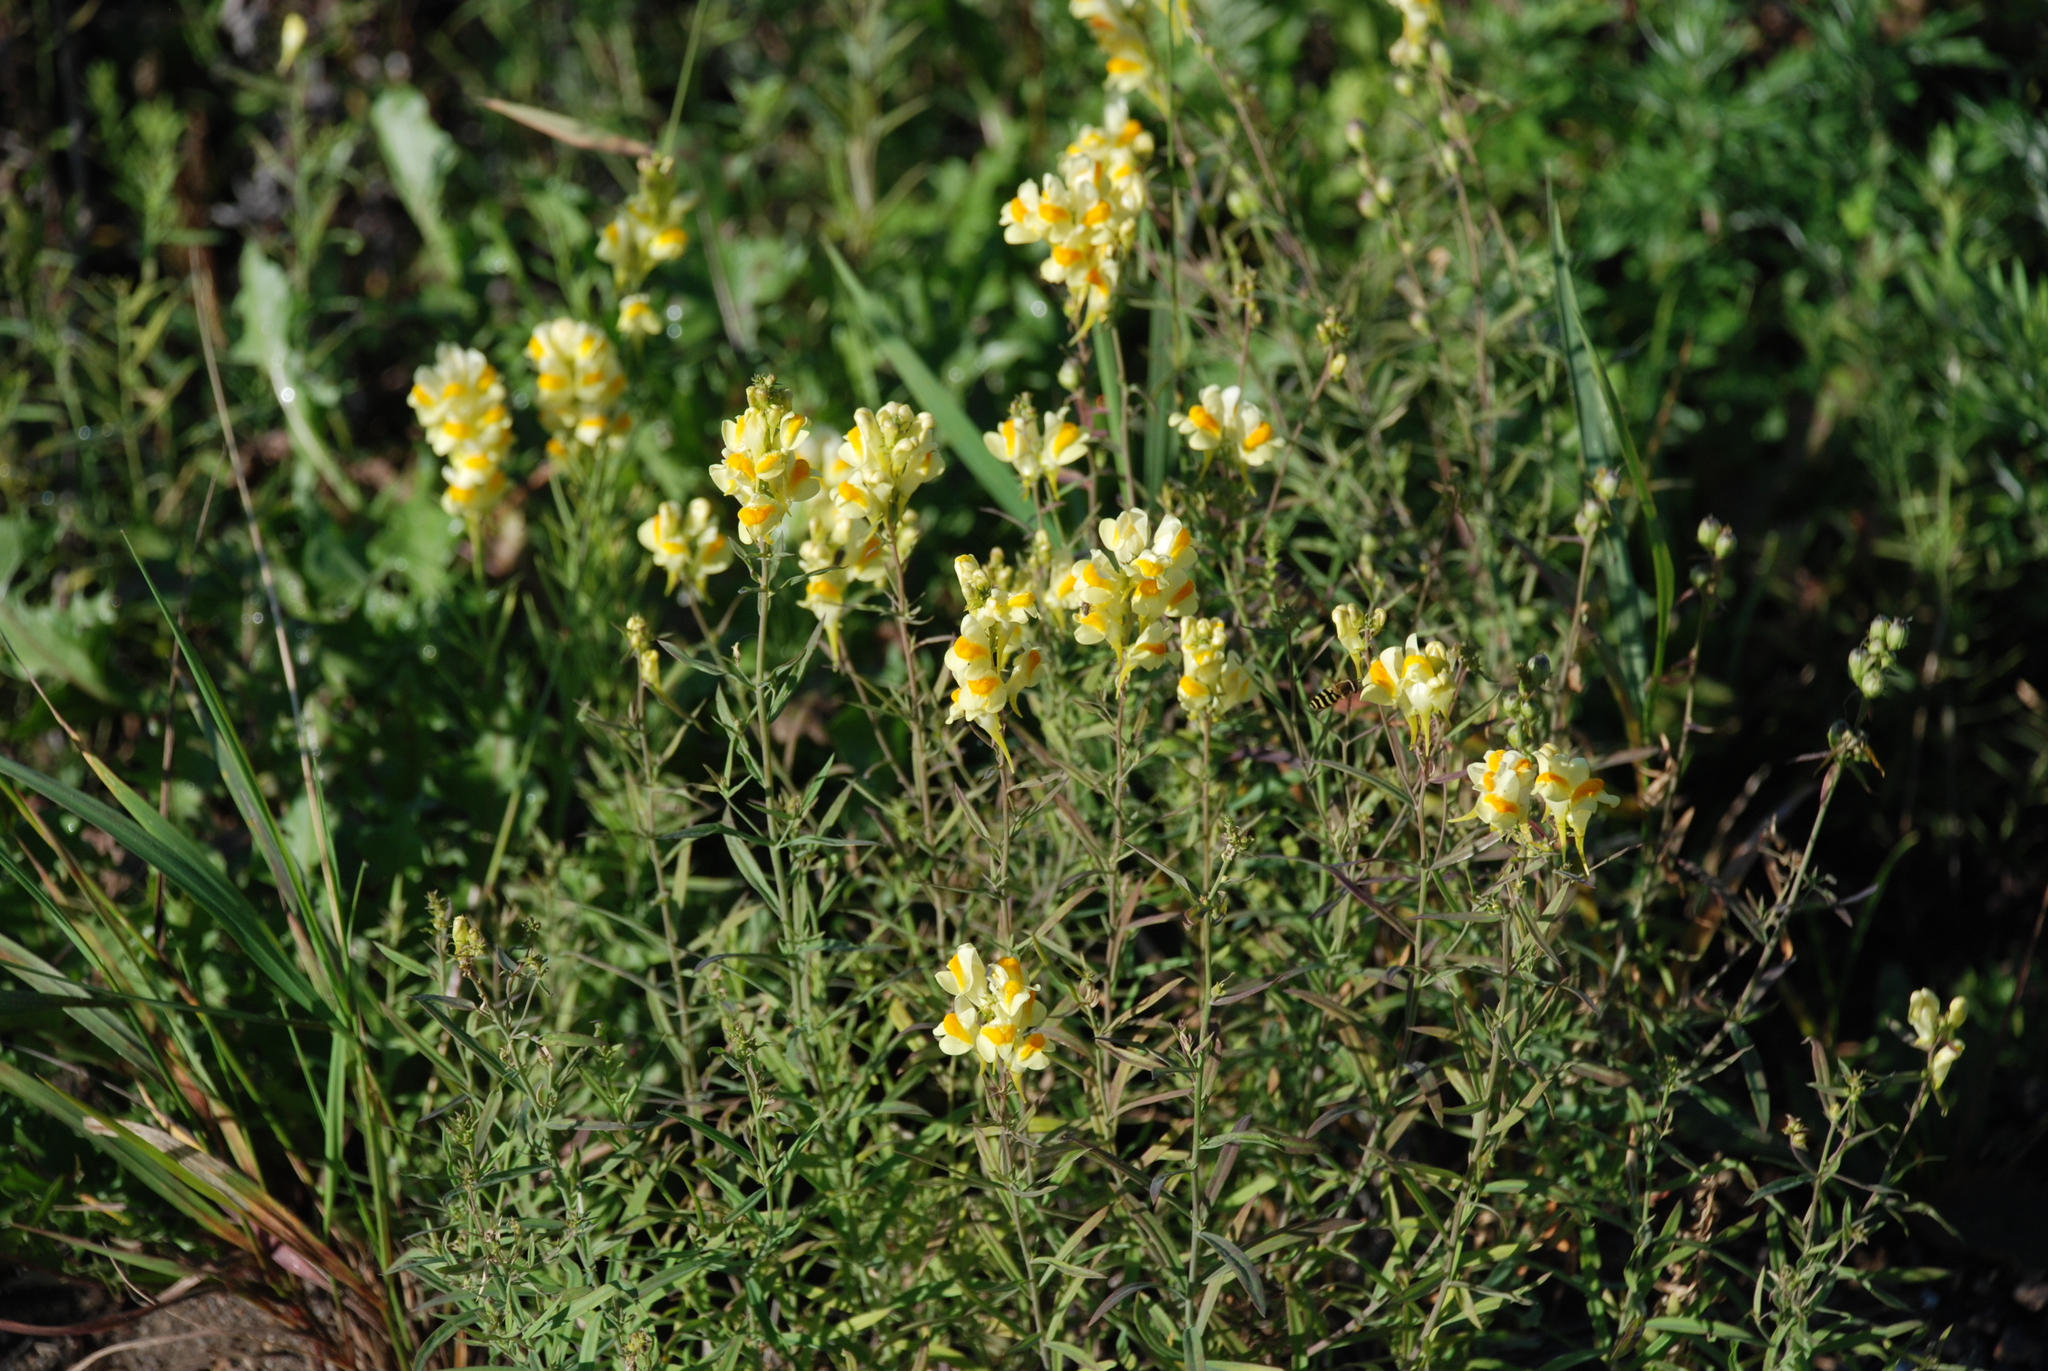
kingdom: Plantae
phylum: Tracheophyta
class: Magnoliopsida
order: Lamiales
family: Plantaginaceae
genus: Linaria
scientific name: Linaria vulgaris
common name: Butter and eggs
